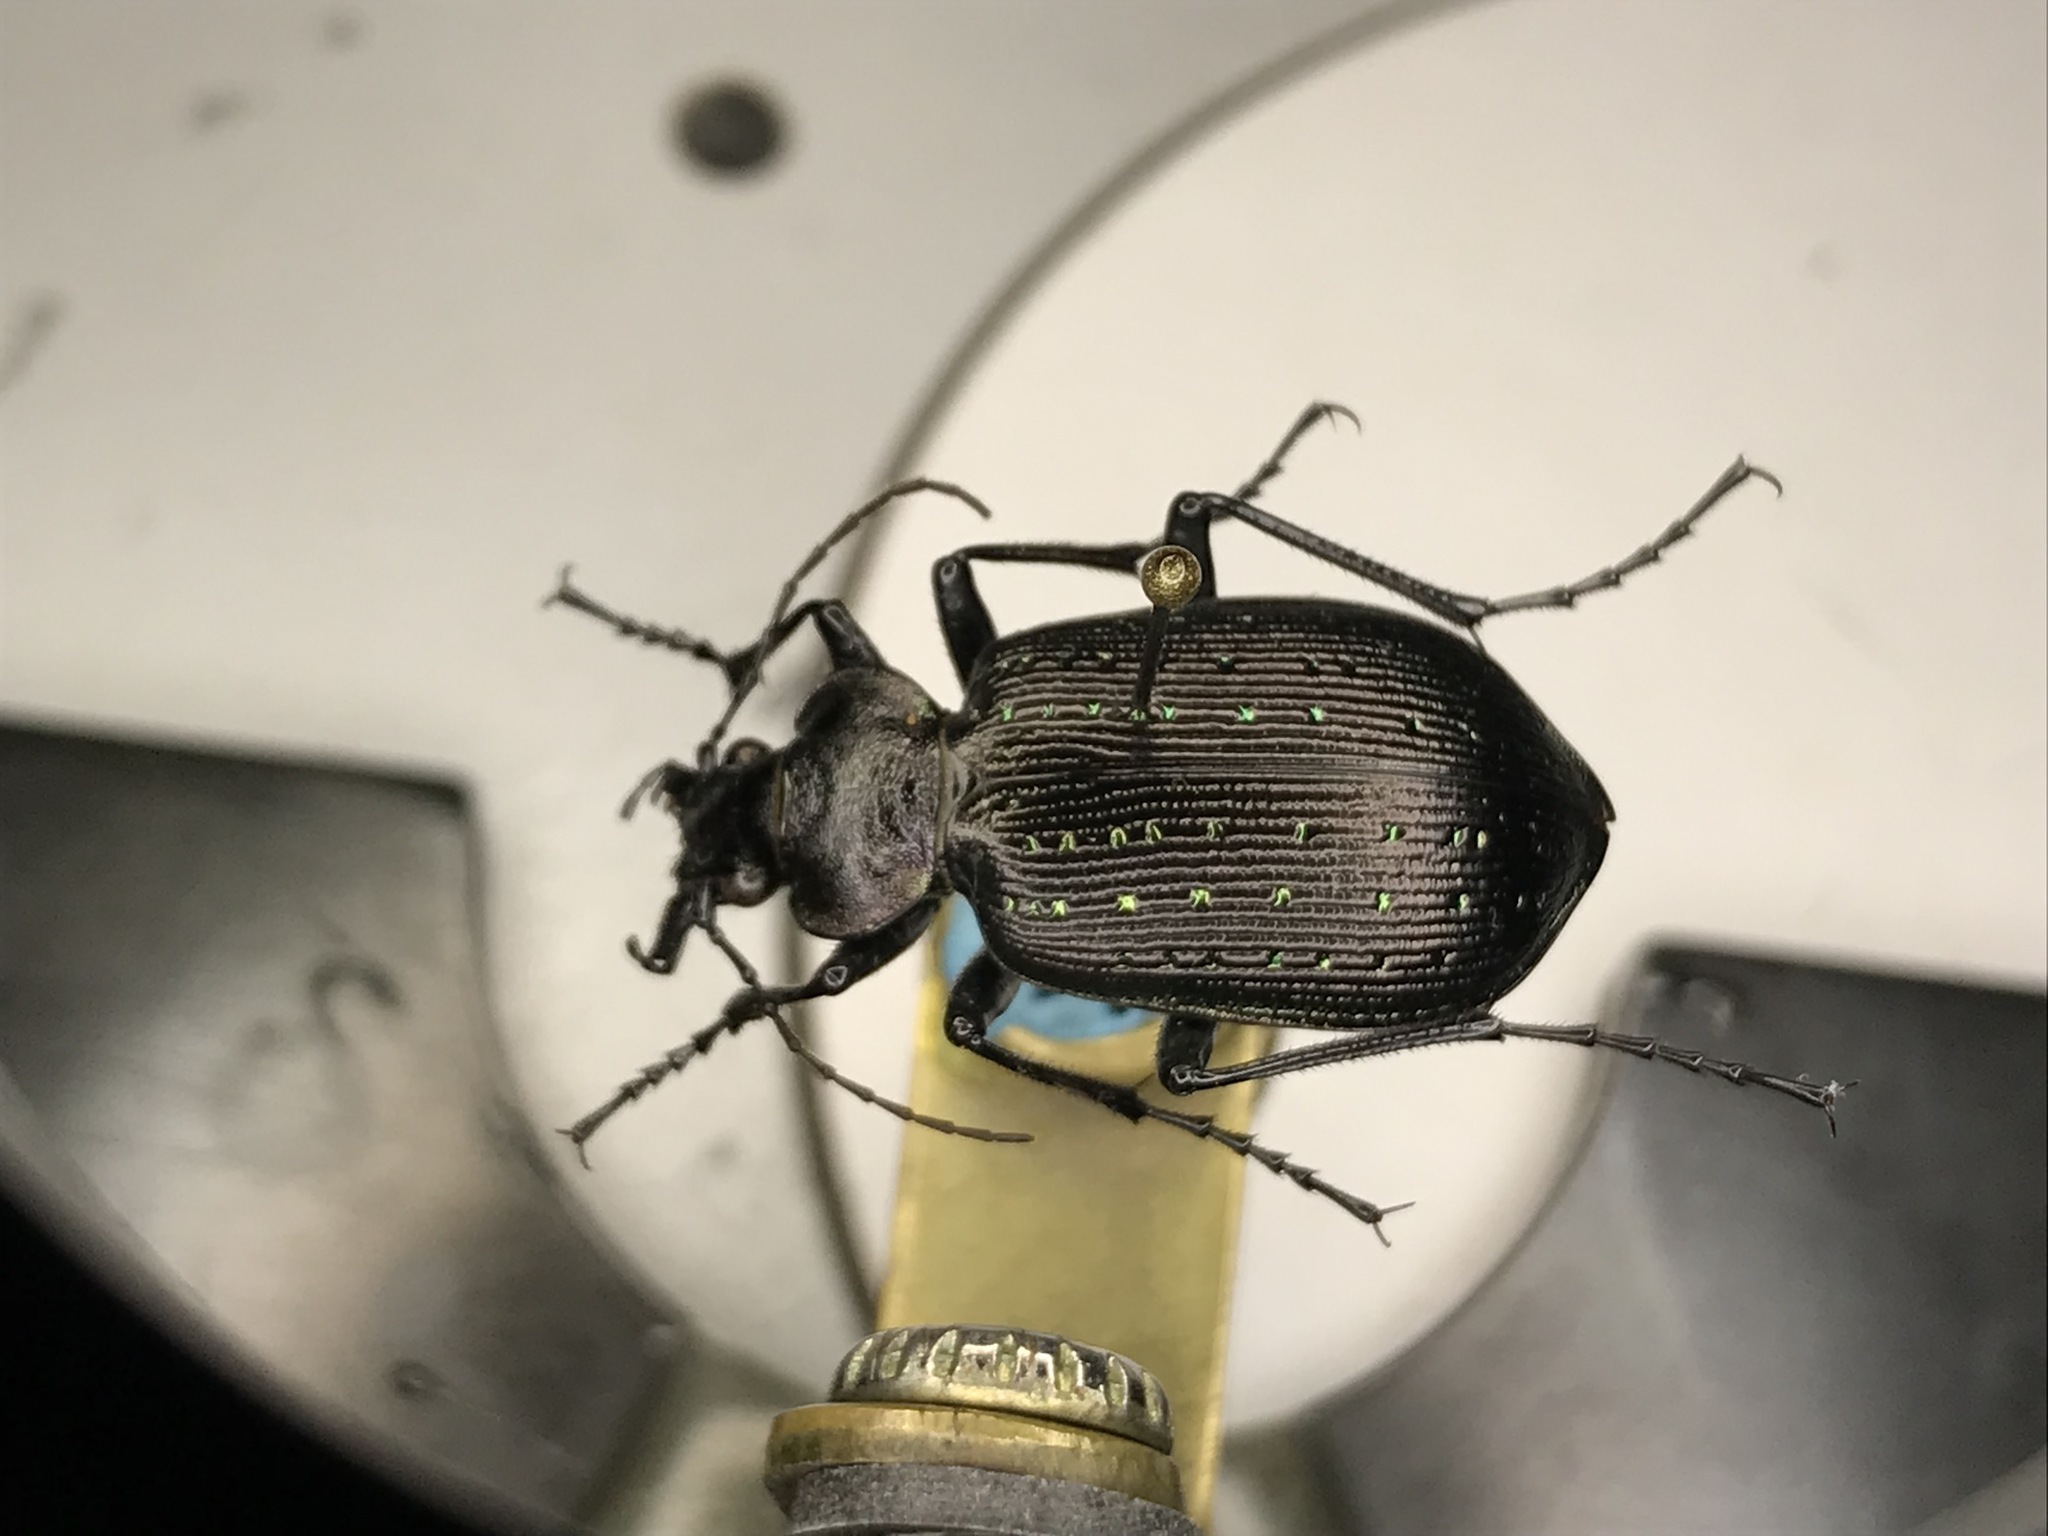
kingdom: Animalia
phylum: Arthropoda
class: Insecta
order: Coleoptera
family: Carabidae
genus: Calosoma
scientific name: Calosoma frigidum
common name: Cold-country caterpillar hunter
